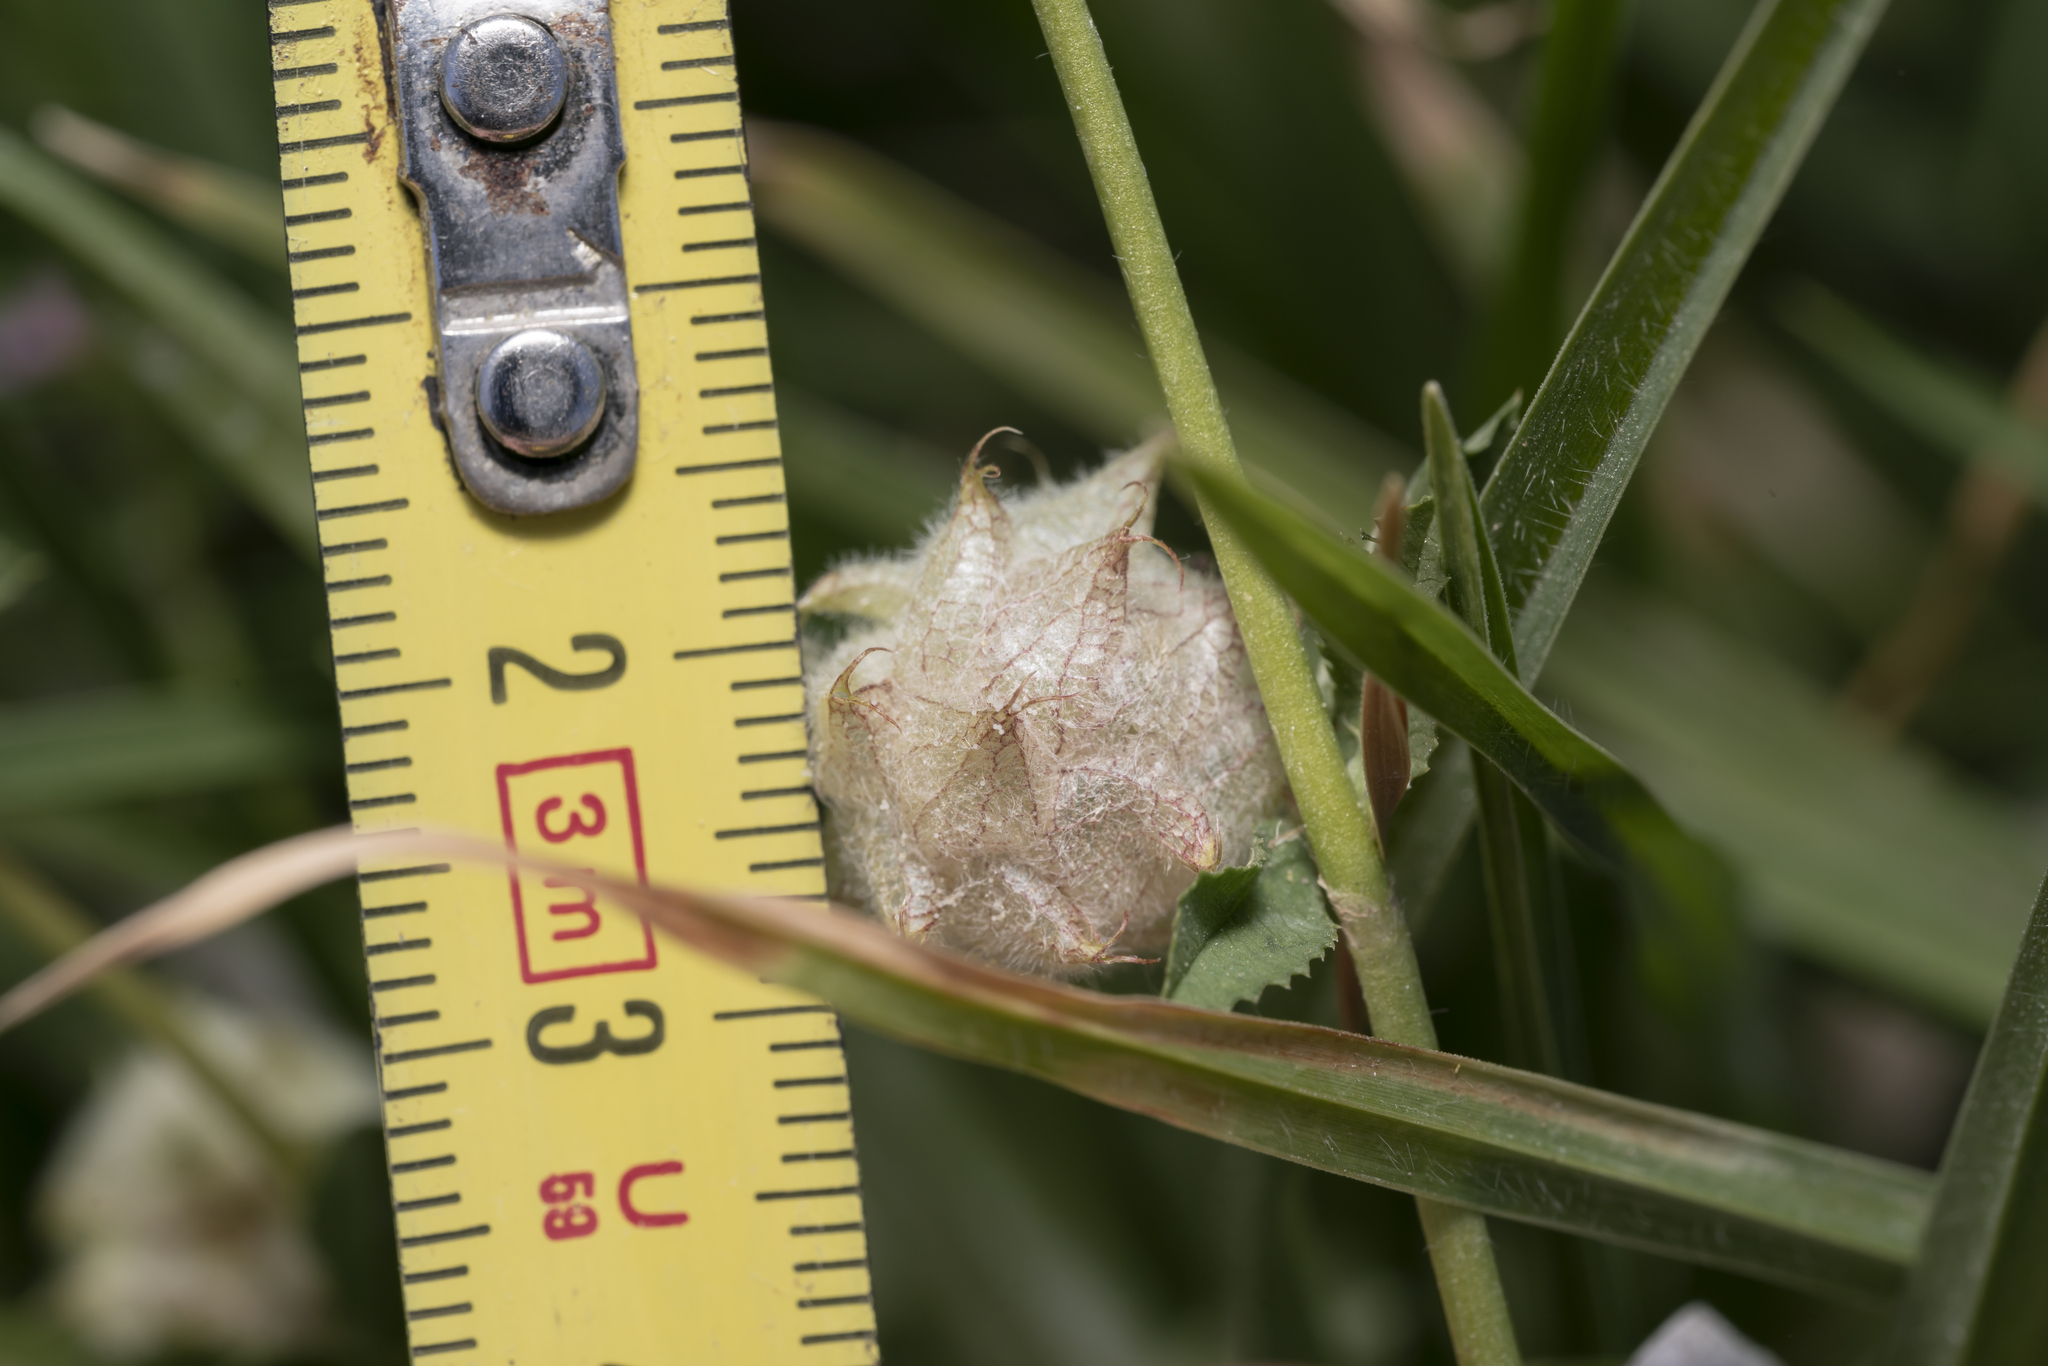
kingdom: Plantae
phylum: Tracheophyta
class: Magnoliopsida
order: Fabales
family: Fabaceae
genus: Trifolium
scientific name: Trifolium tomentosum
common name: Woolly clover
